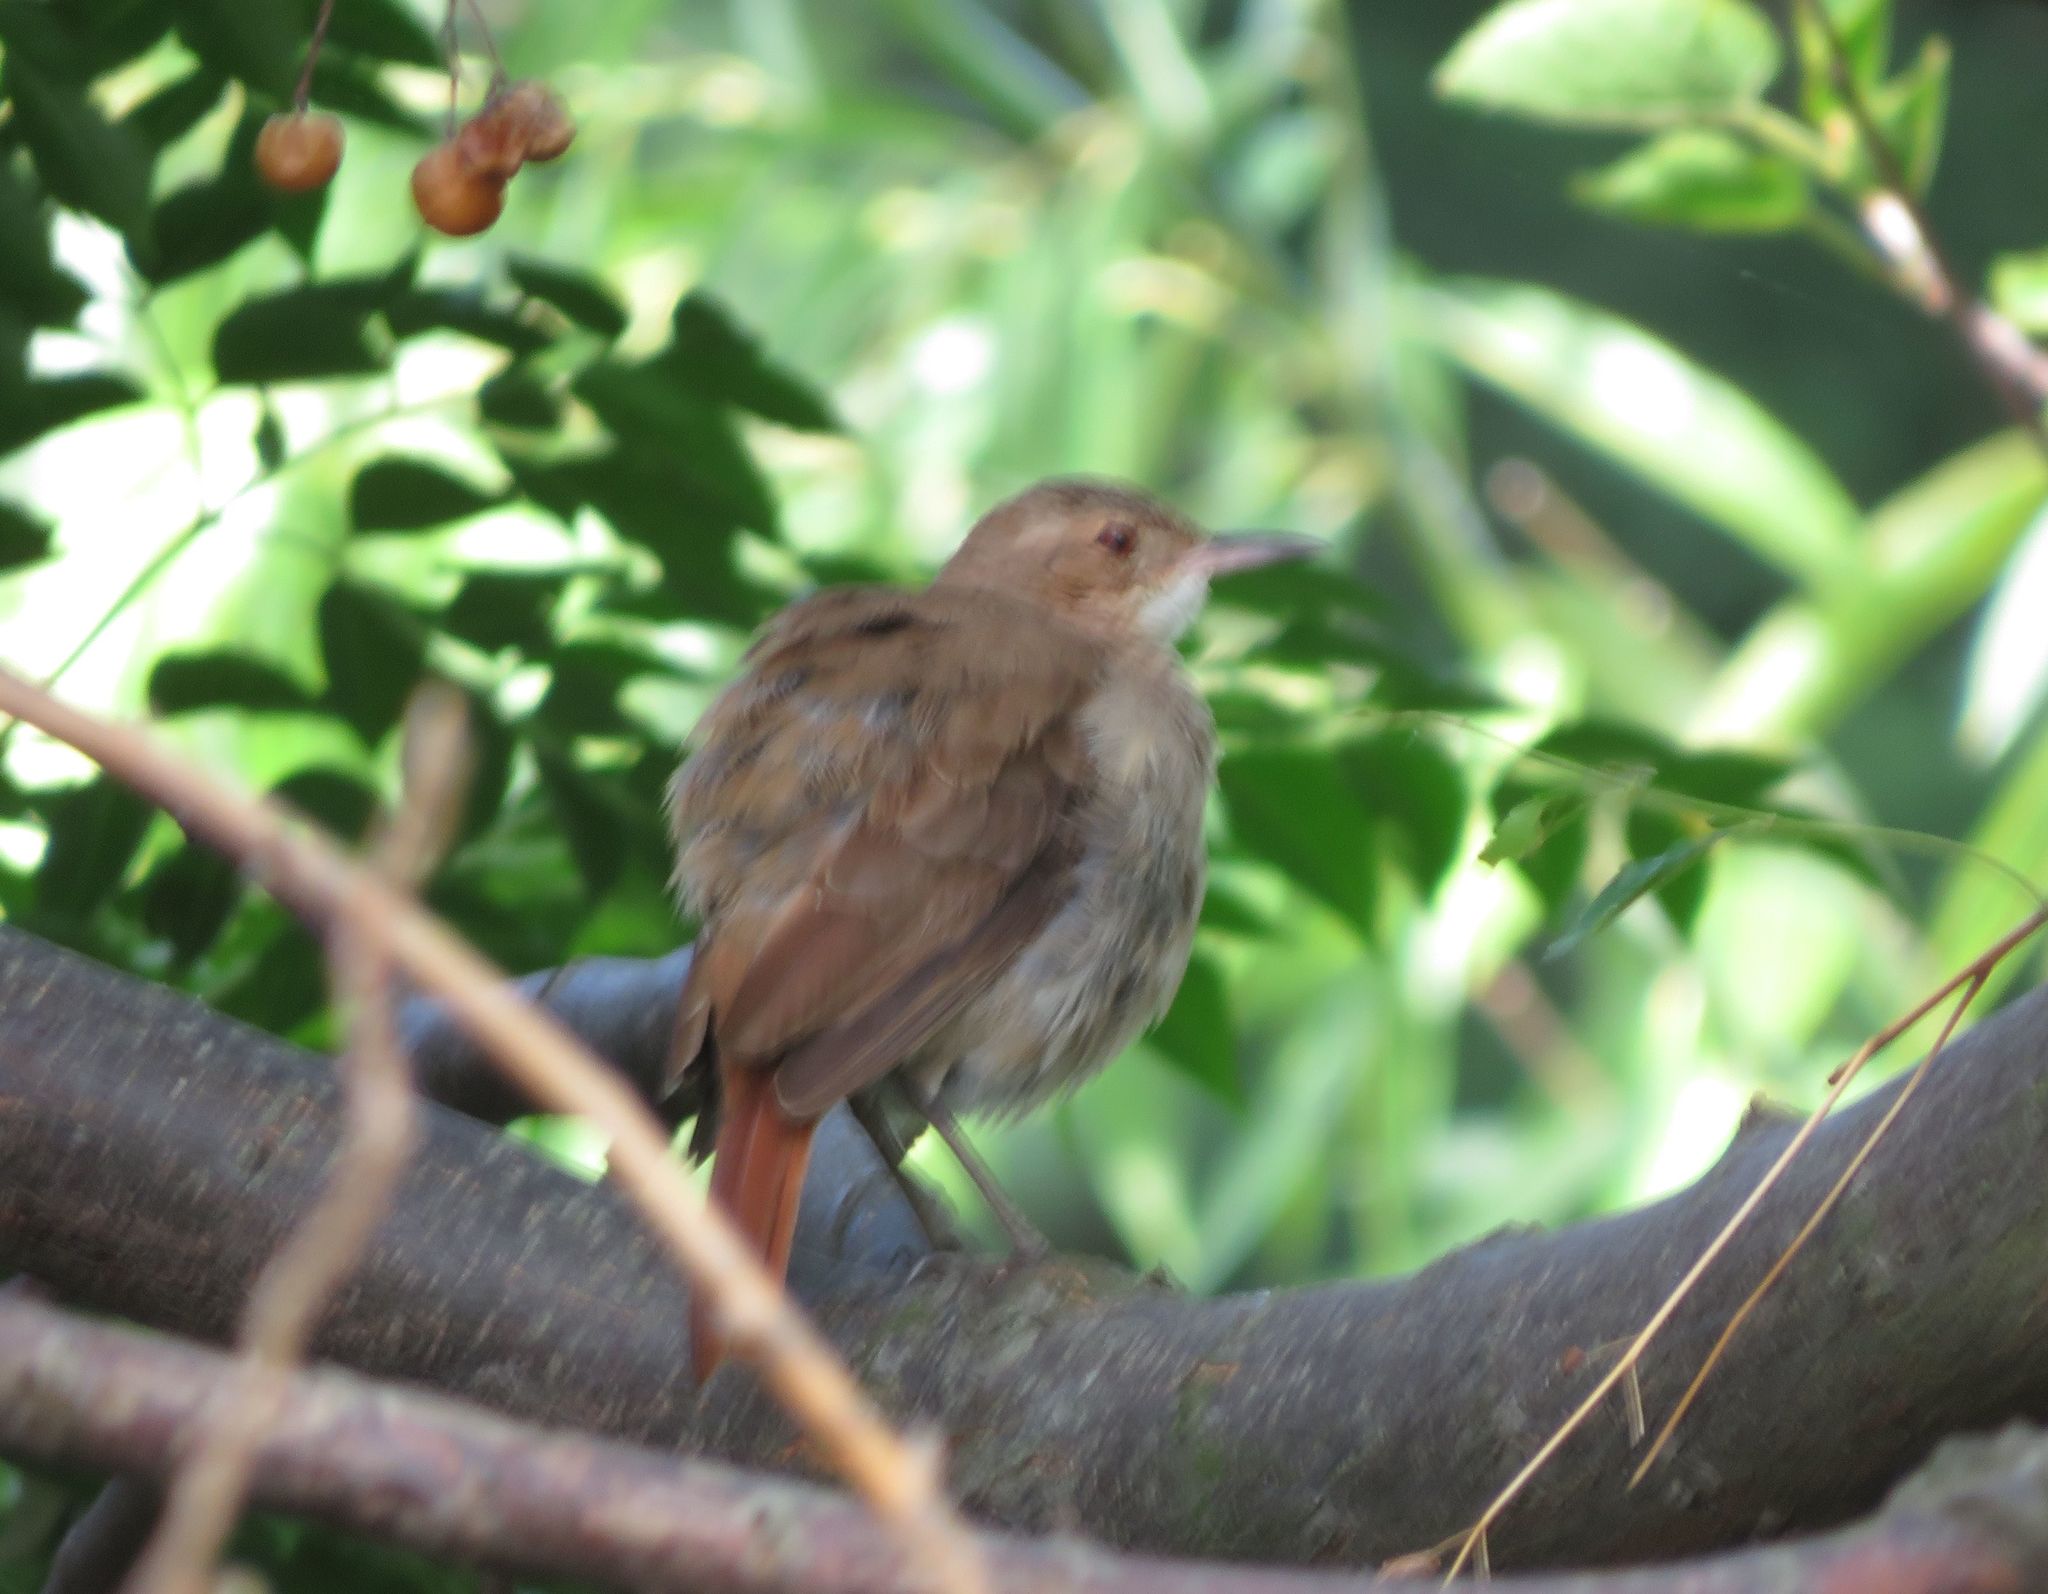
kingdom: Animalia
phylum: Chordata
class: Aves
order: Passeriformes
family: Furnariidae
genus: Furnarius
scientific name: Furnarius rufus
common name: Rufous hornero
